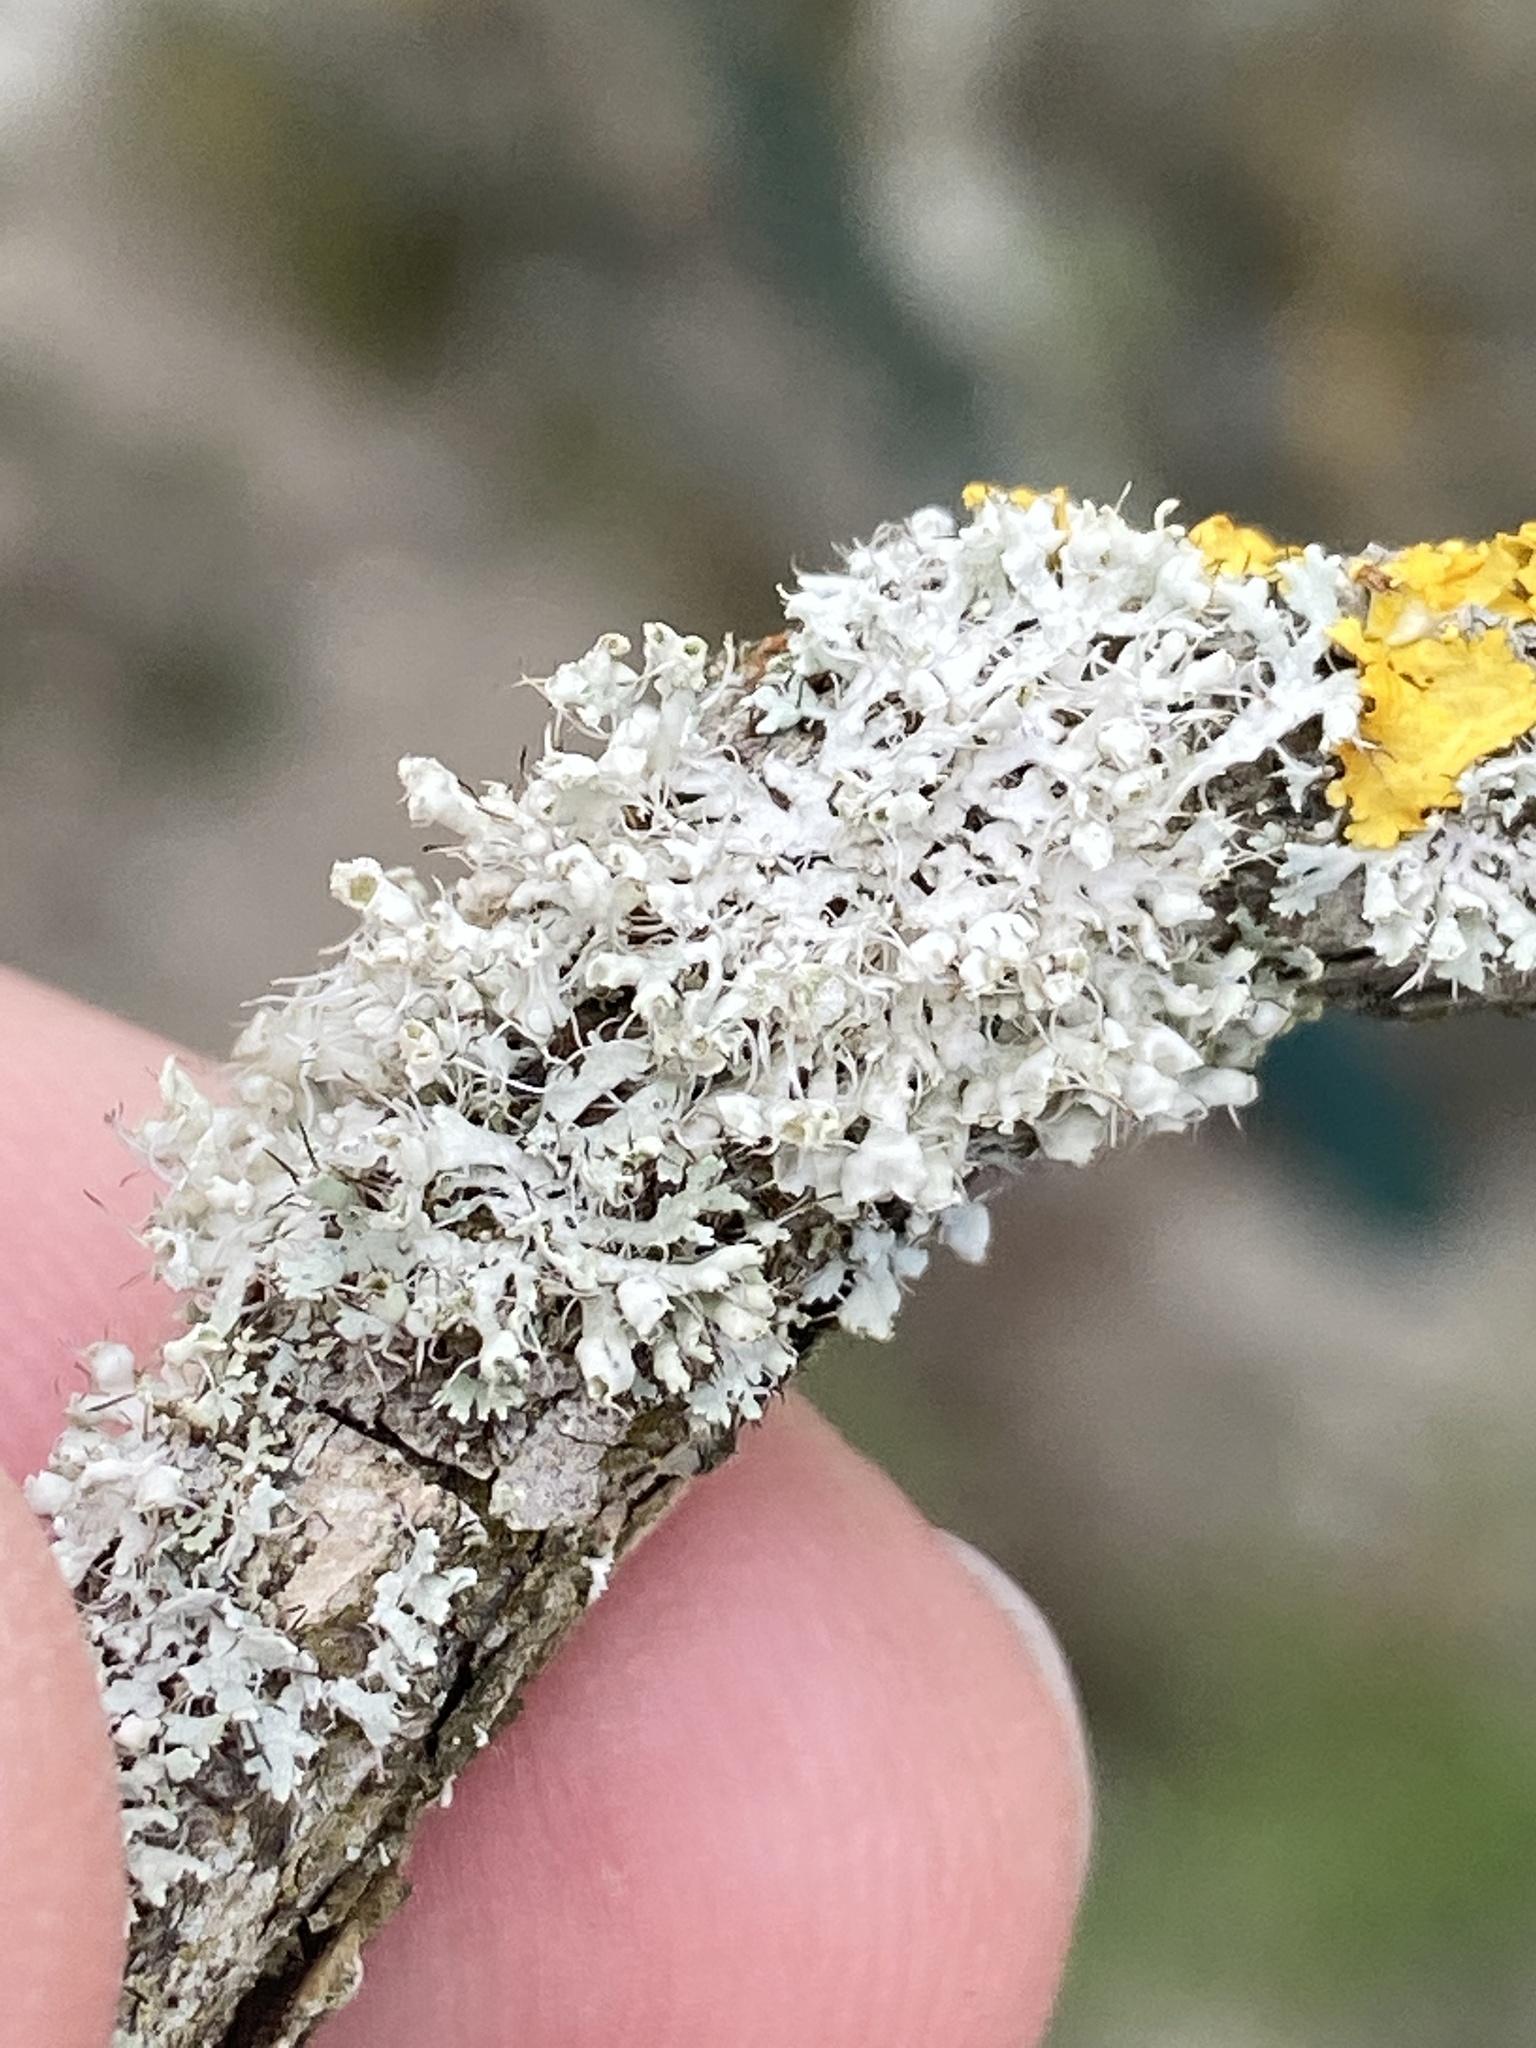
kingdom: Fungi
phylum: Ascomycota
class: Lecanoromycetes
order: Caliciales
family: Physciaceae
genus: Physcia
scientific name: Physcia adscendens
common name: Hooded rosette lichen
